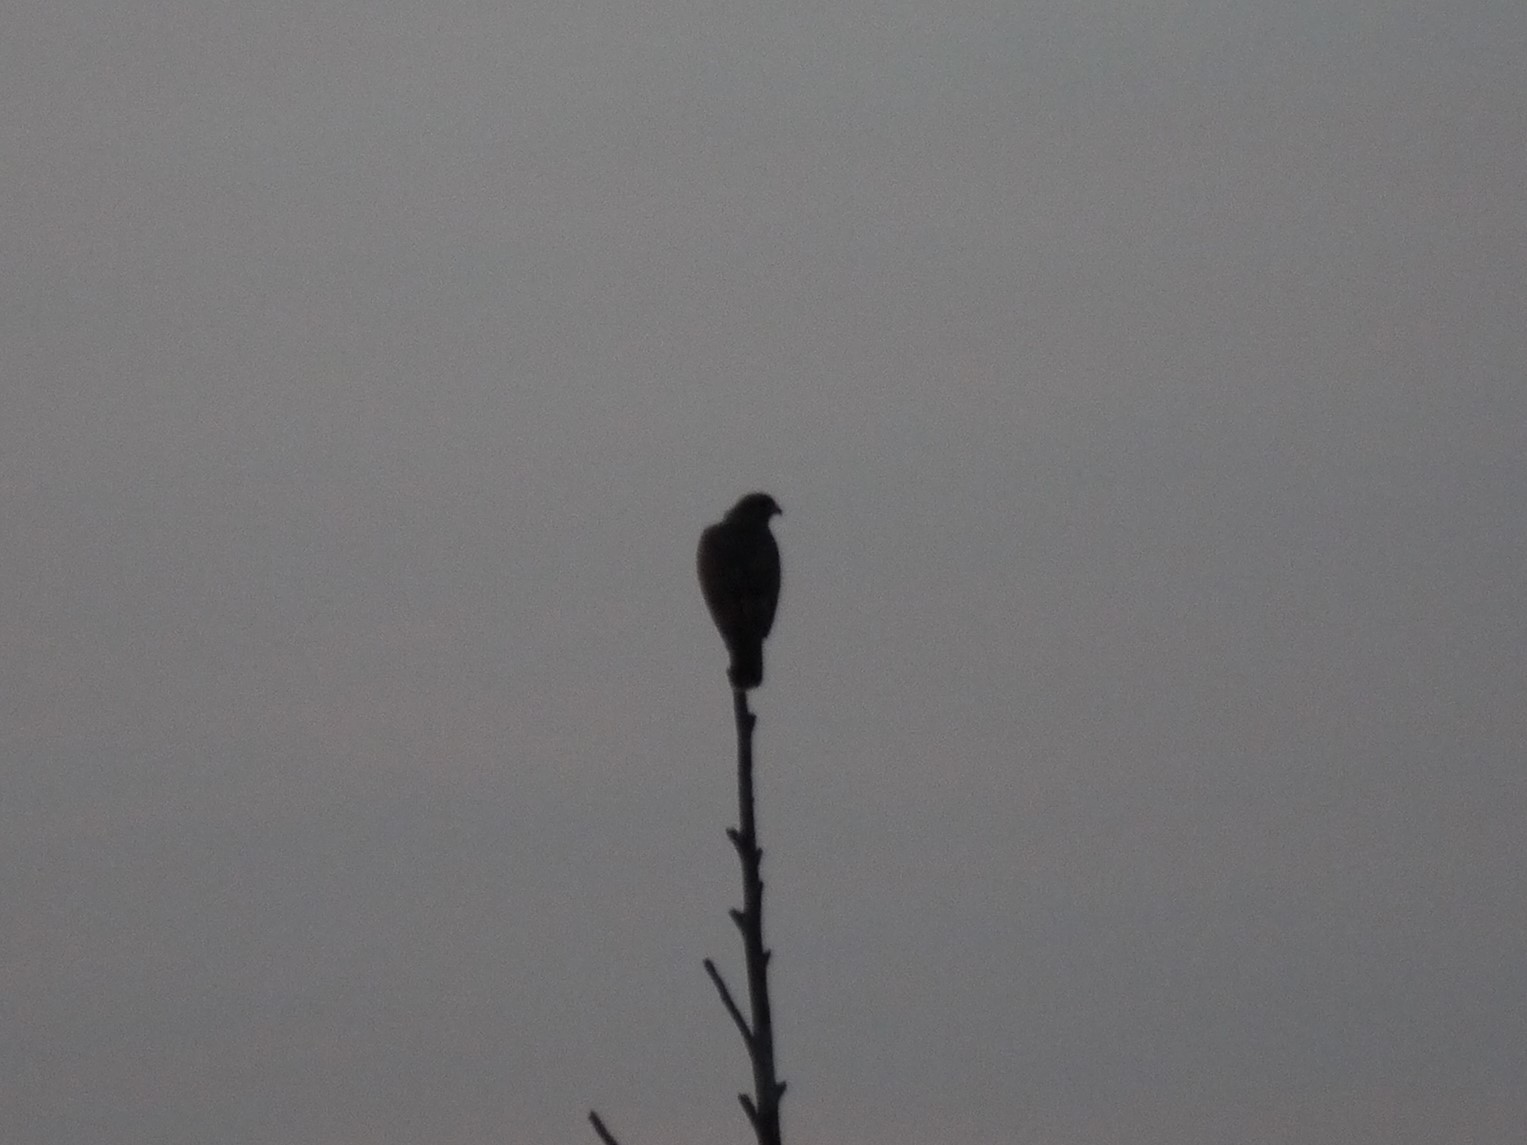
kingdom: Animalia
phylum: Chordata
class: Aves
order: Accipitriformes
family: Accipitridae
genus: Buteo
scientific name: Buteo buteo
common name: Common buzzard
